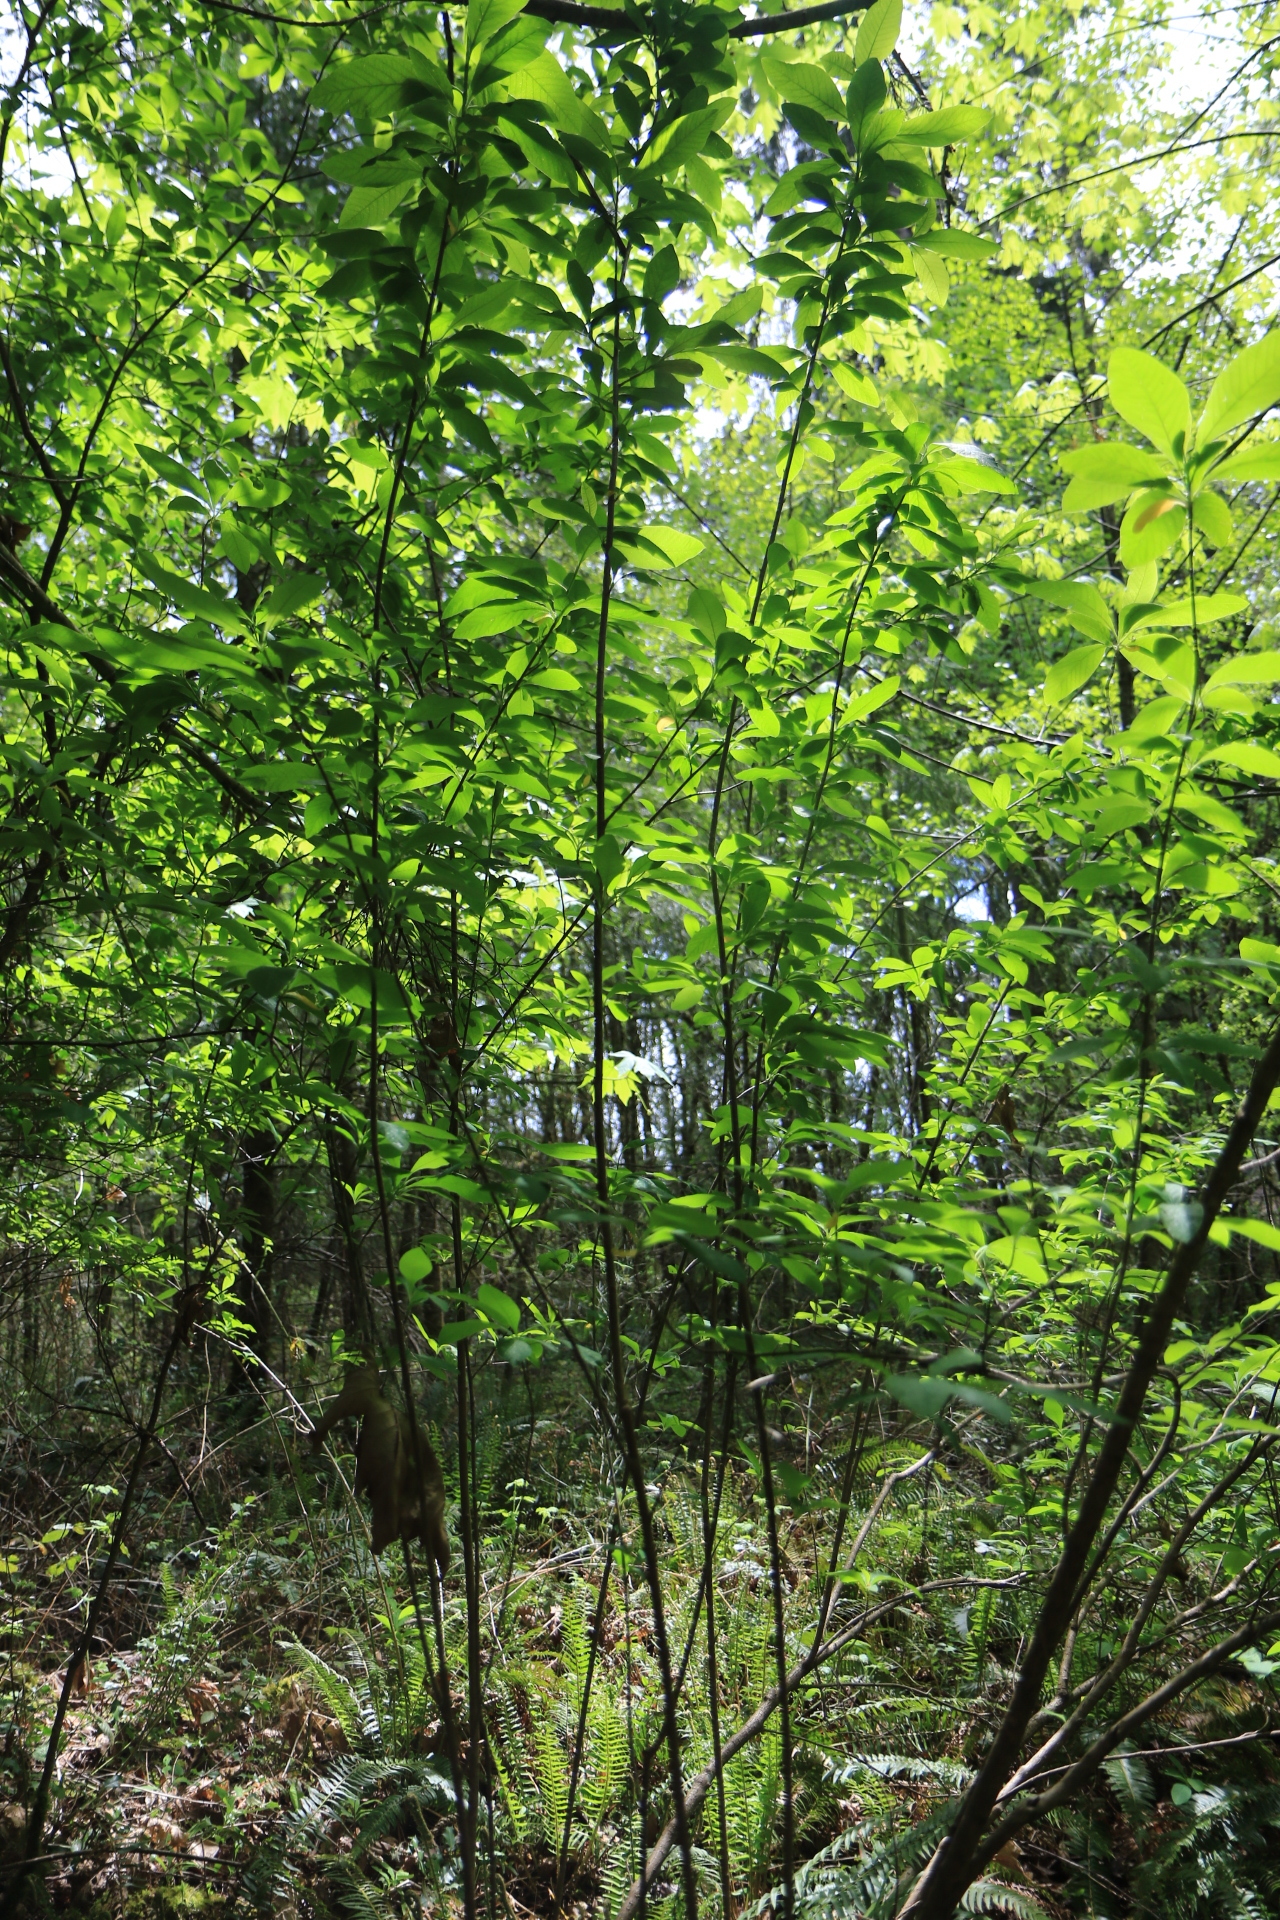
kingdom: Plantae
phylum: Tracheophyta
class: Magnoliopsida
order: Rosales
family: Rosaceae
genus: Oemleria
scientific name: Oemleria cerasiformis
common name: Osoberry
